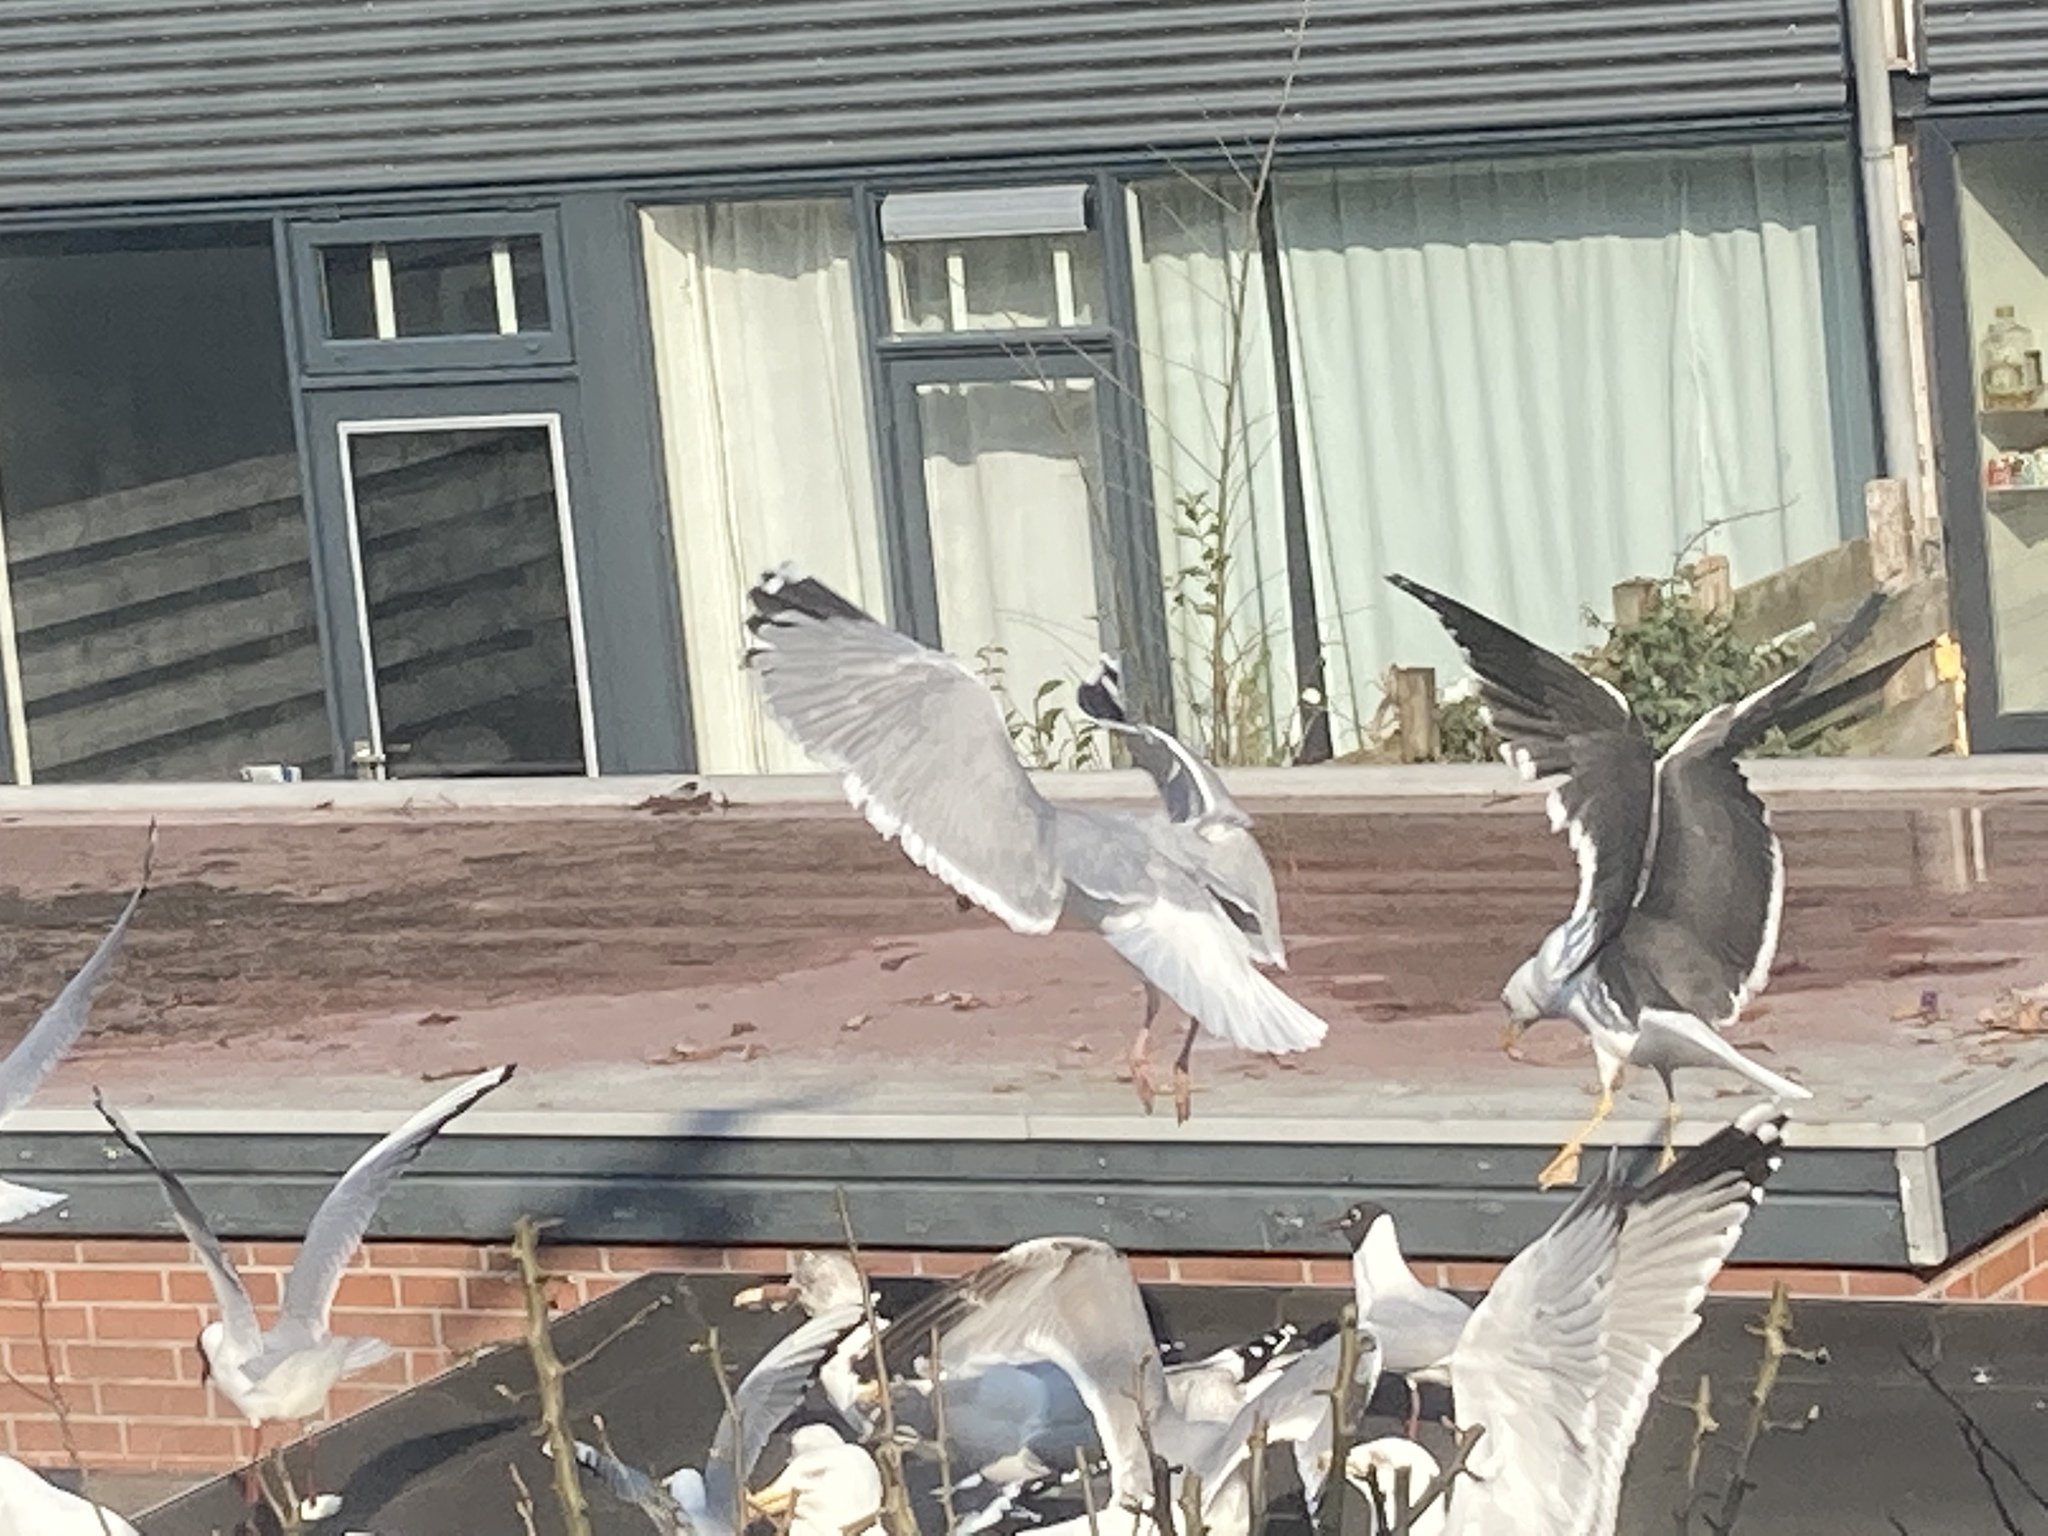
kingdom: Animalia
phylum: Chordata
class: Aves
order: Charadriiformes
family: Laridae
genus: Larus
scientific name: Larus fuscus
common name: Lesser black-backed gull
